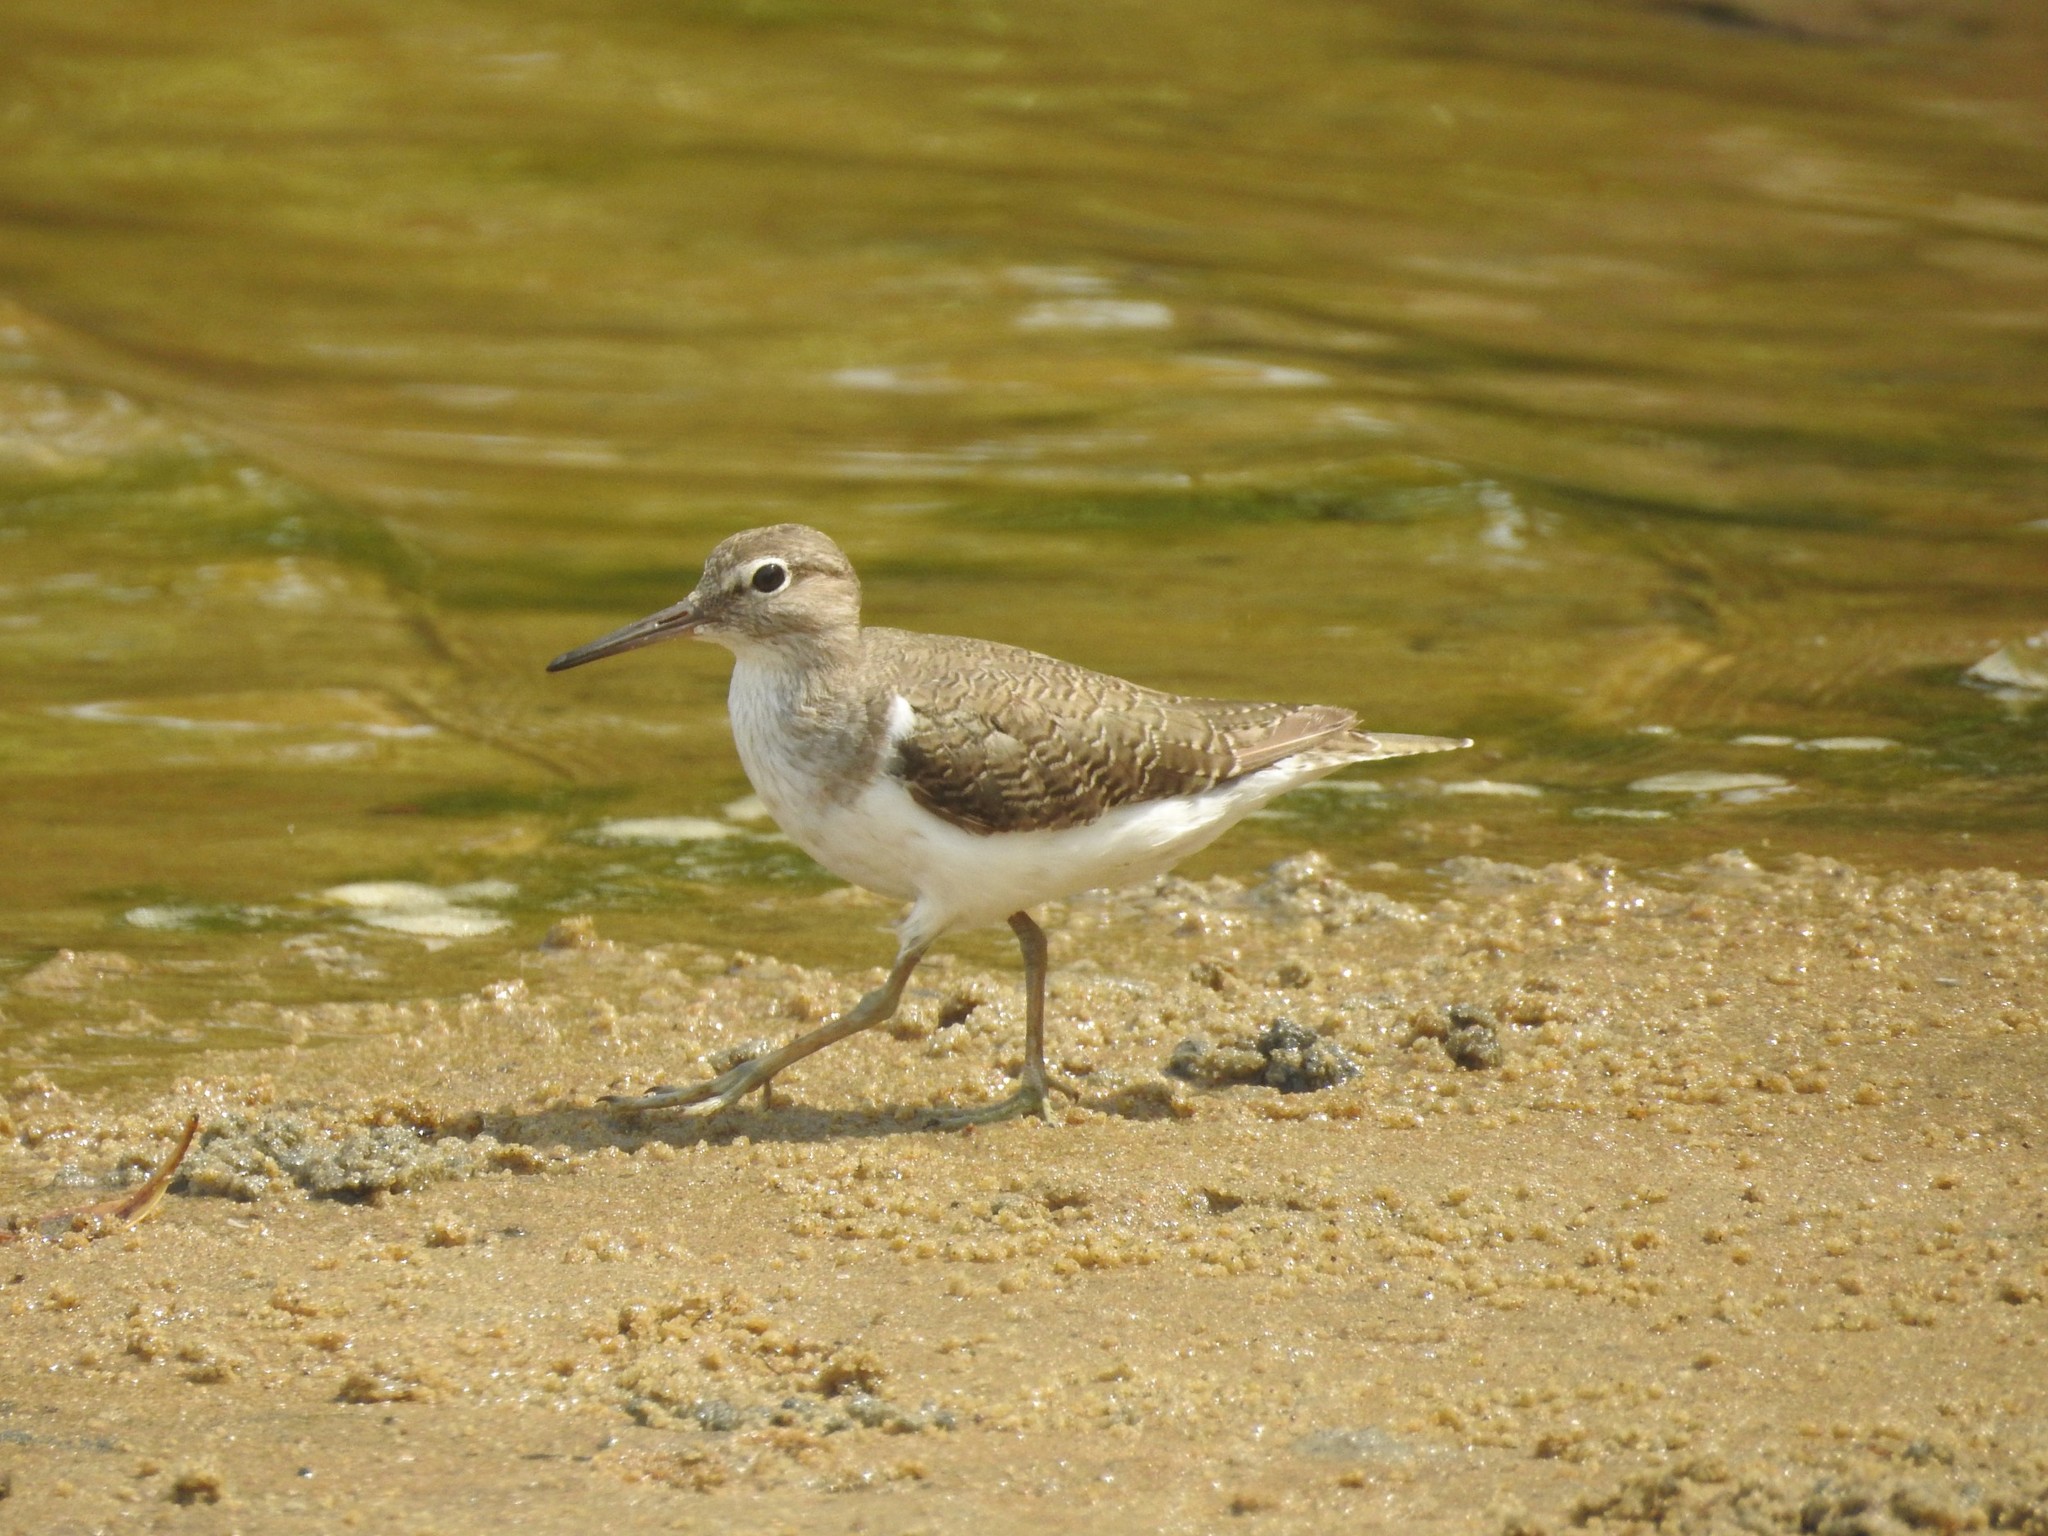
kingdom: Animalia
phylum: Chordata
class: Aves
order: Charadriiformes
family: Scolopacidae
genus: Actitis
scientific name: Actitis hypoleucos
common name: Common sandpiper
